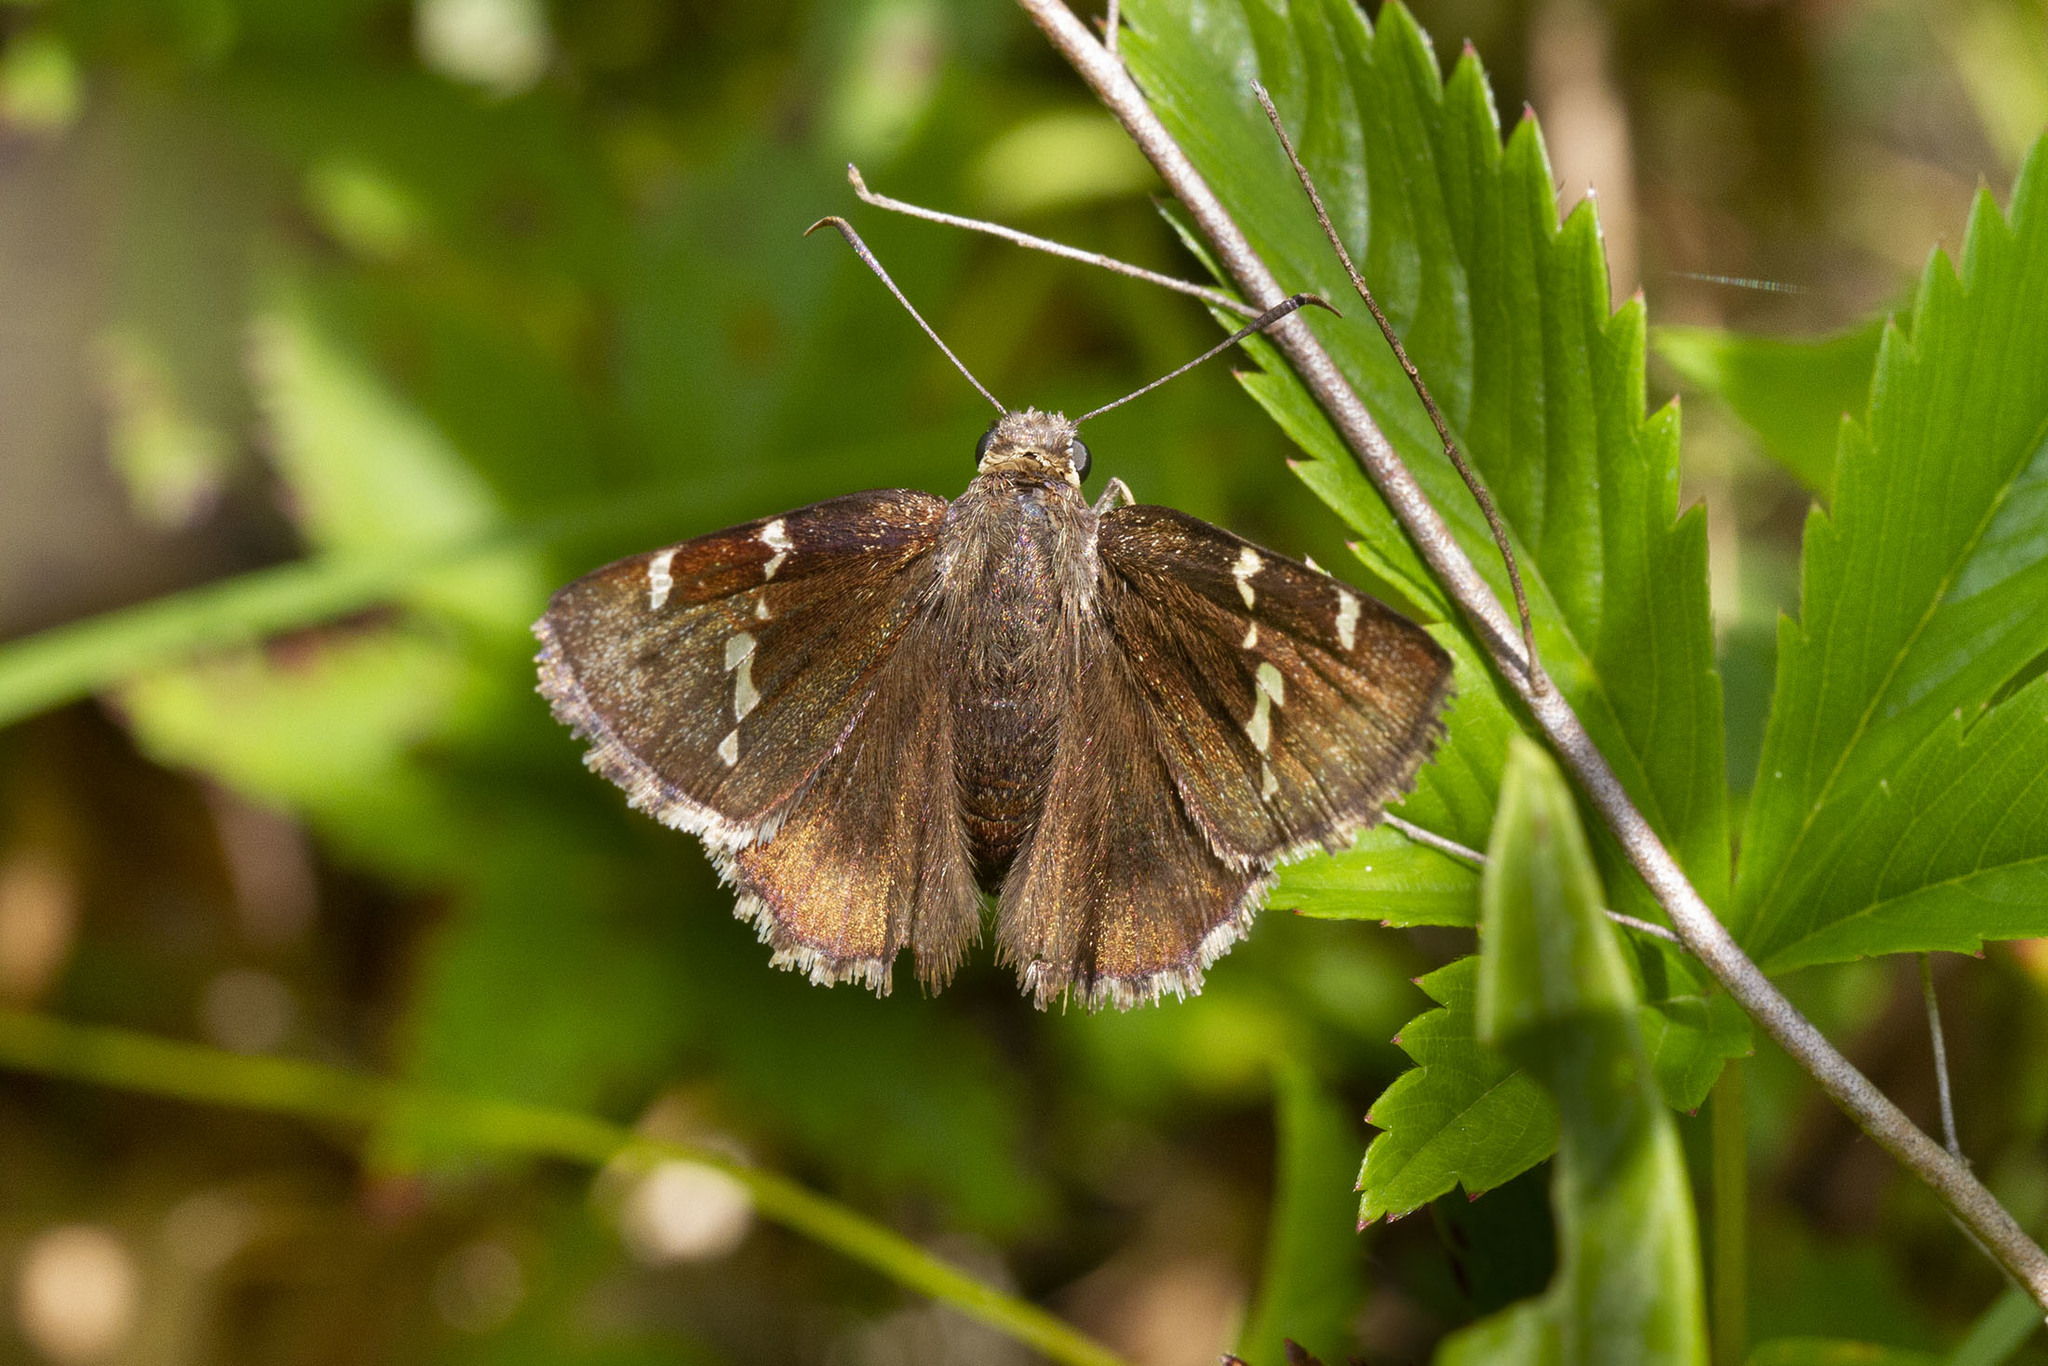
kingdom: Animalia
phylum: Arthropoda
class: Insecta
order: Lepidoptera
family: Hesperiidae
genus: Thorybes
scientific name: Thorybes daunus
